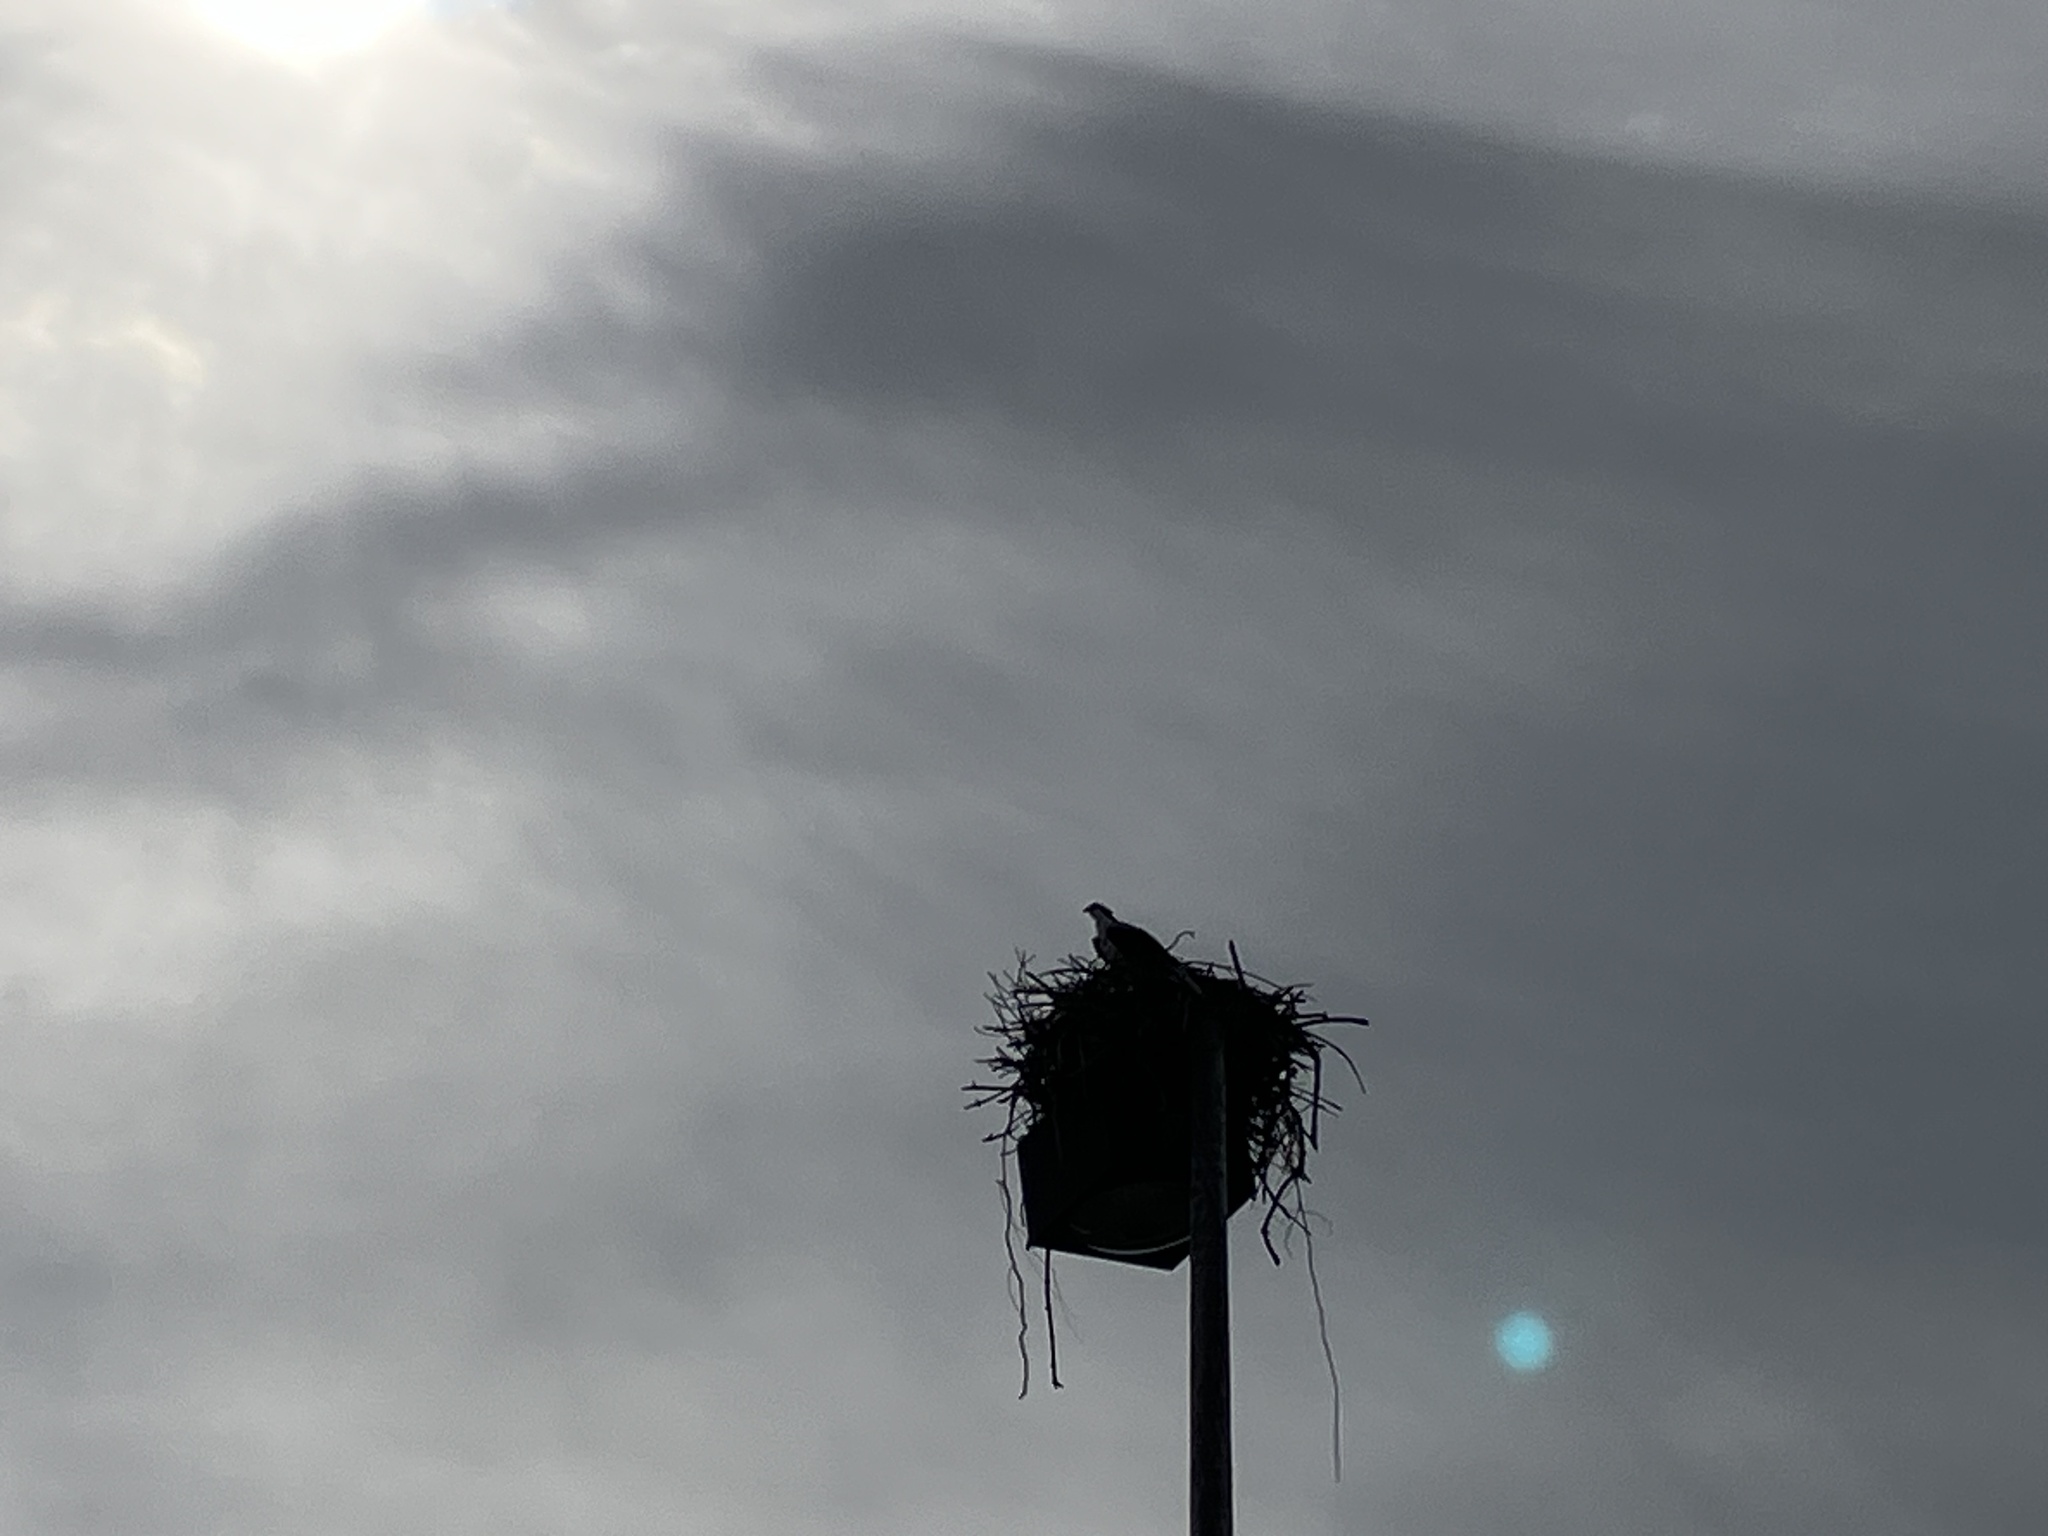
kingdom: Animalia
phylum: Chordata
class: Aves
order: Accipitriformes
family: Pandionidae
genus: Pandion
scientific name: Pandion haliaetus
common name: Osprey
